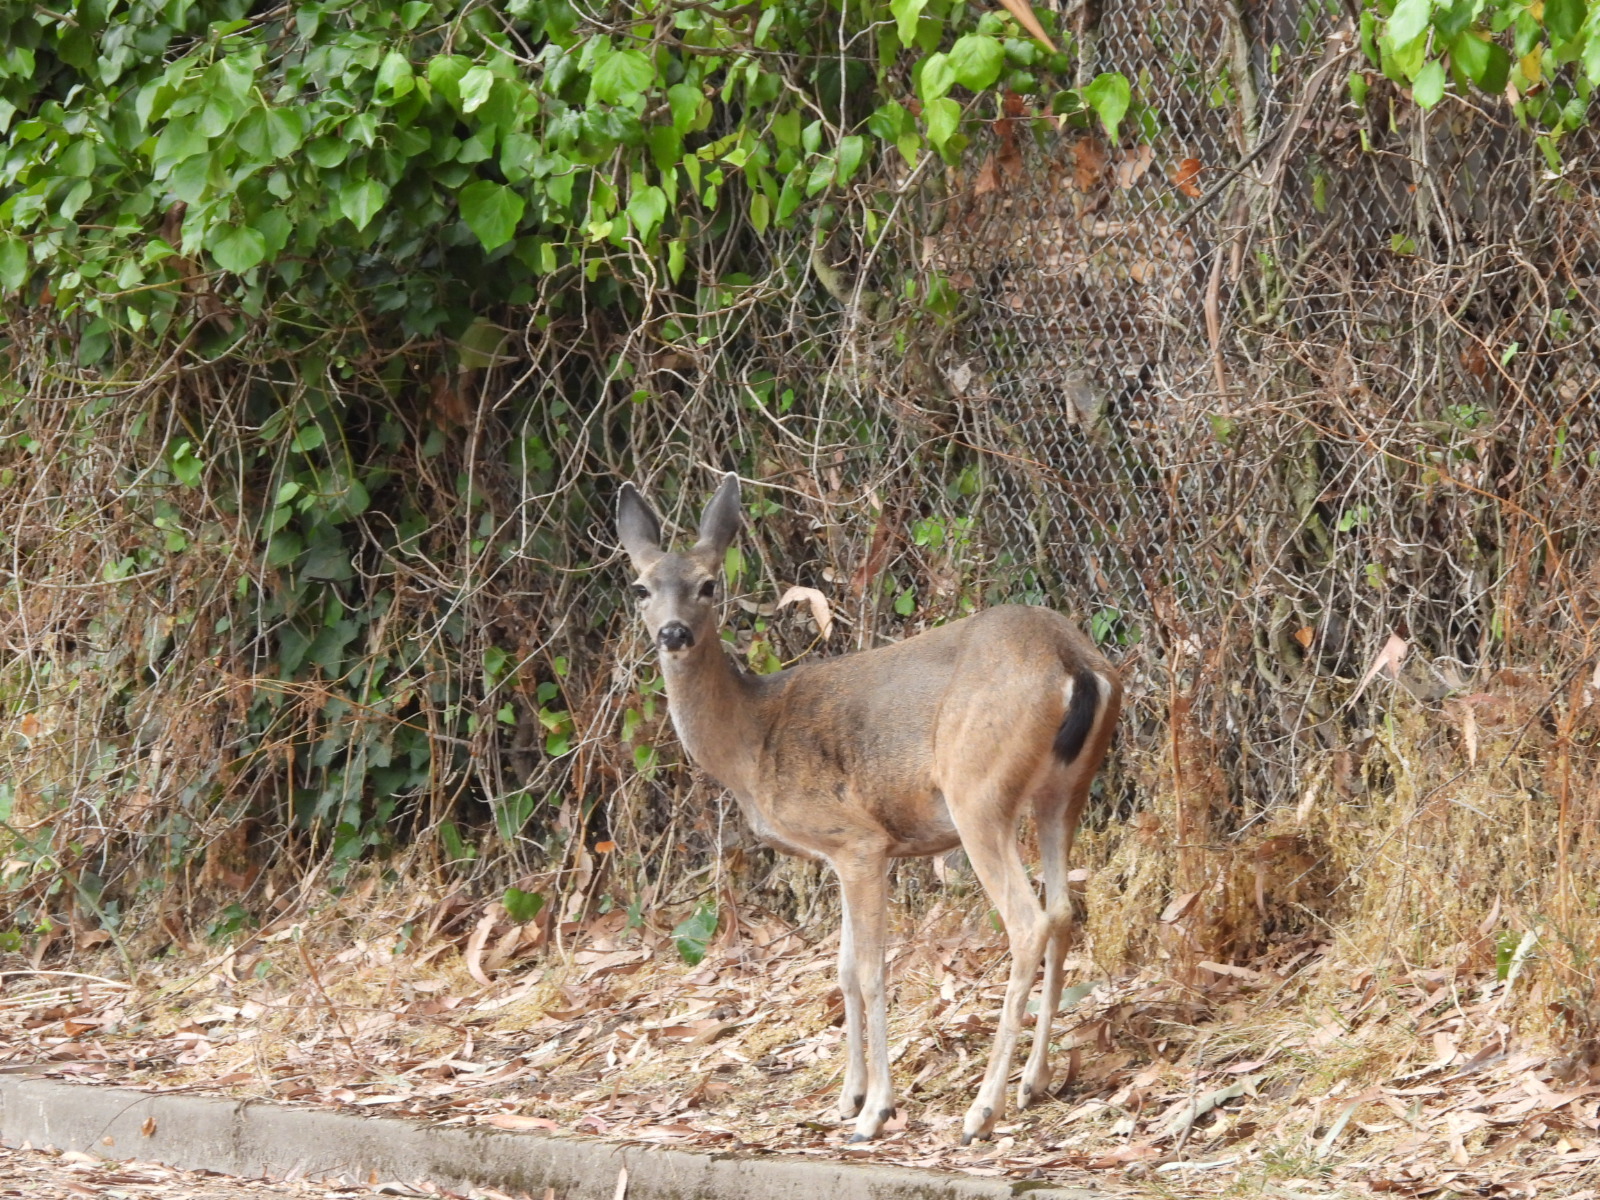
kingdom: Animalia
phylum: Chordata
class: Mammalia
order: Artiodactyla
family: Cervidae
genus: Odocoileus
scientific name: Odocoileus hemionus
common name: Mule deer
